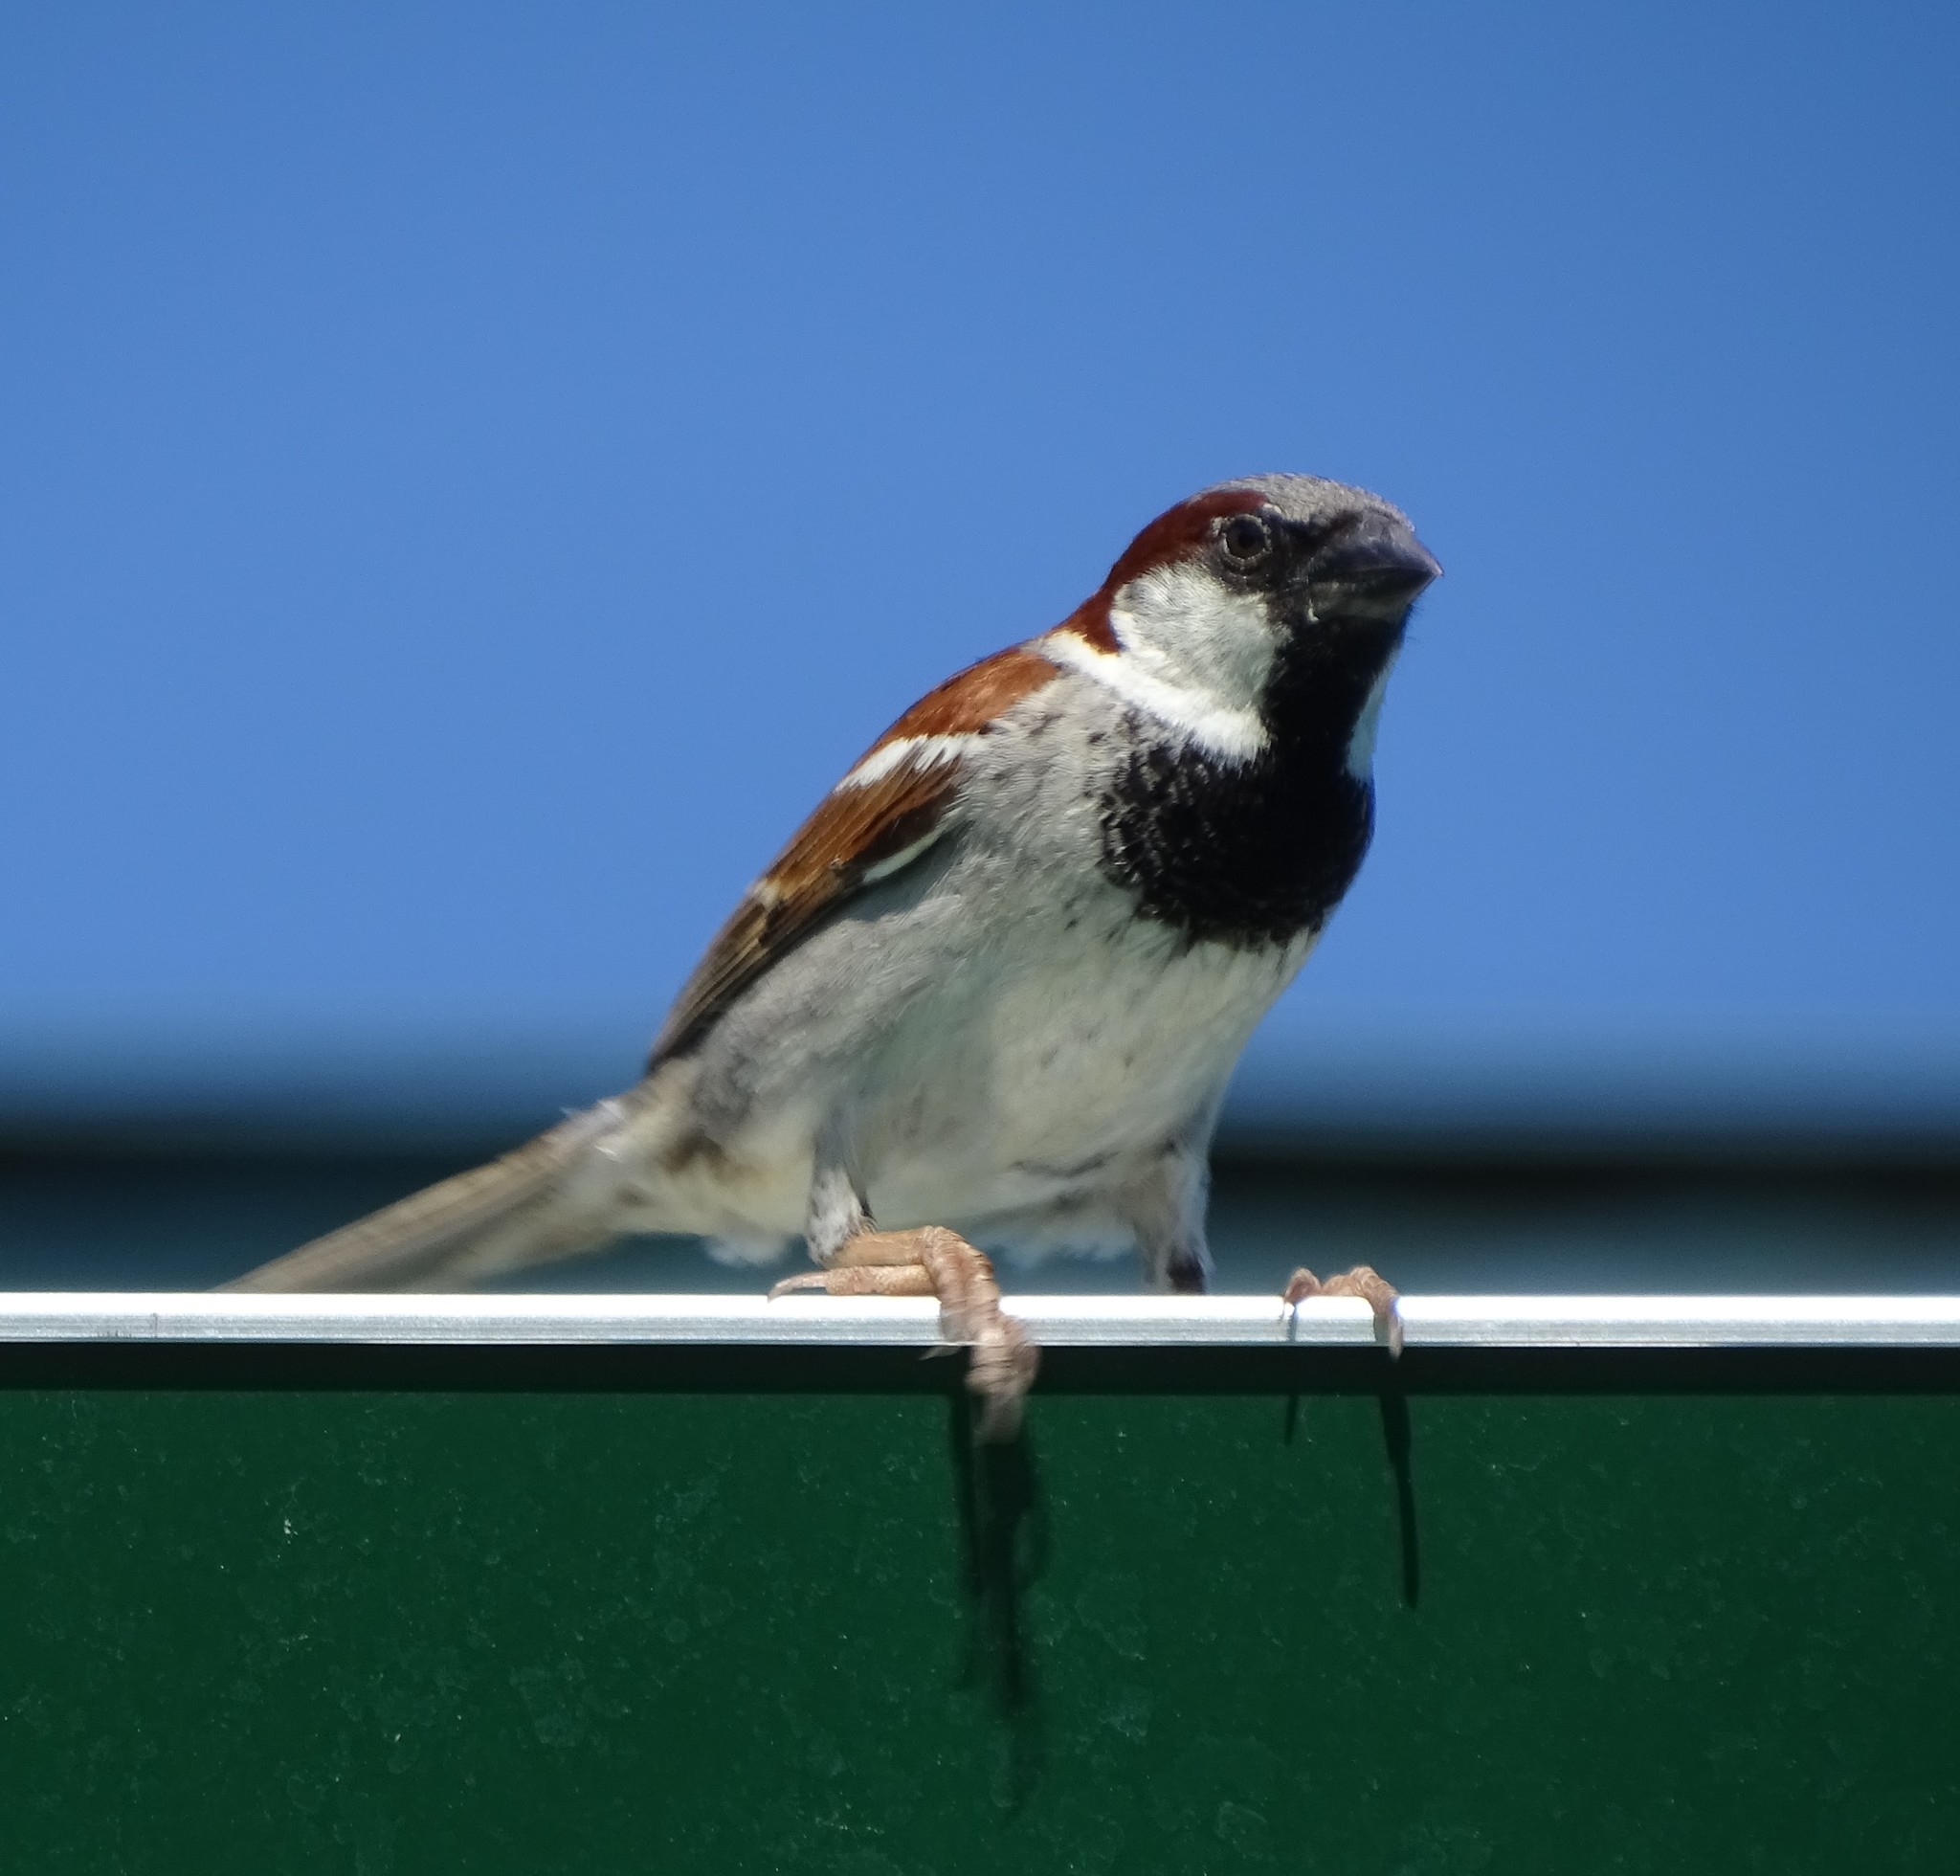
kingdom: Animalia
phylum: Chordata
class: Aves
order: Passeriformes
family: Passeridae
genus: Passer
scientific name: Passer domesticus
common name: House sparrow
